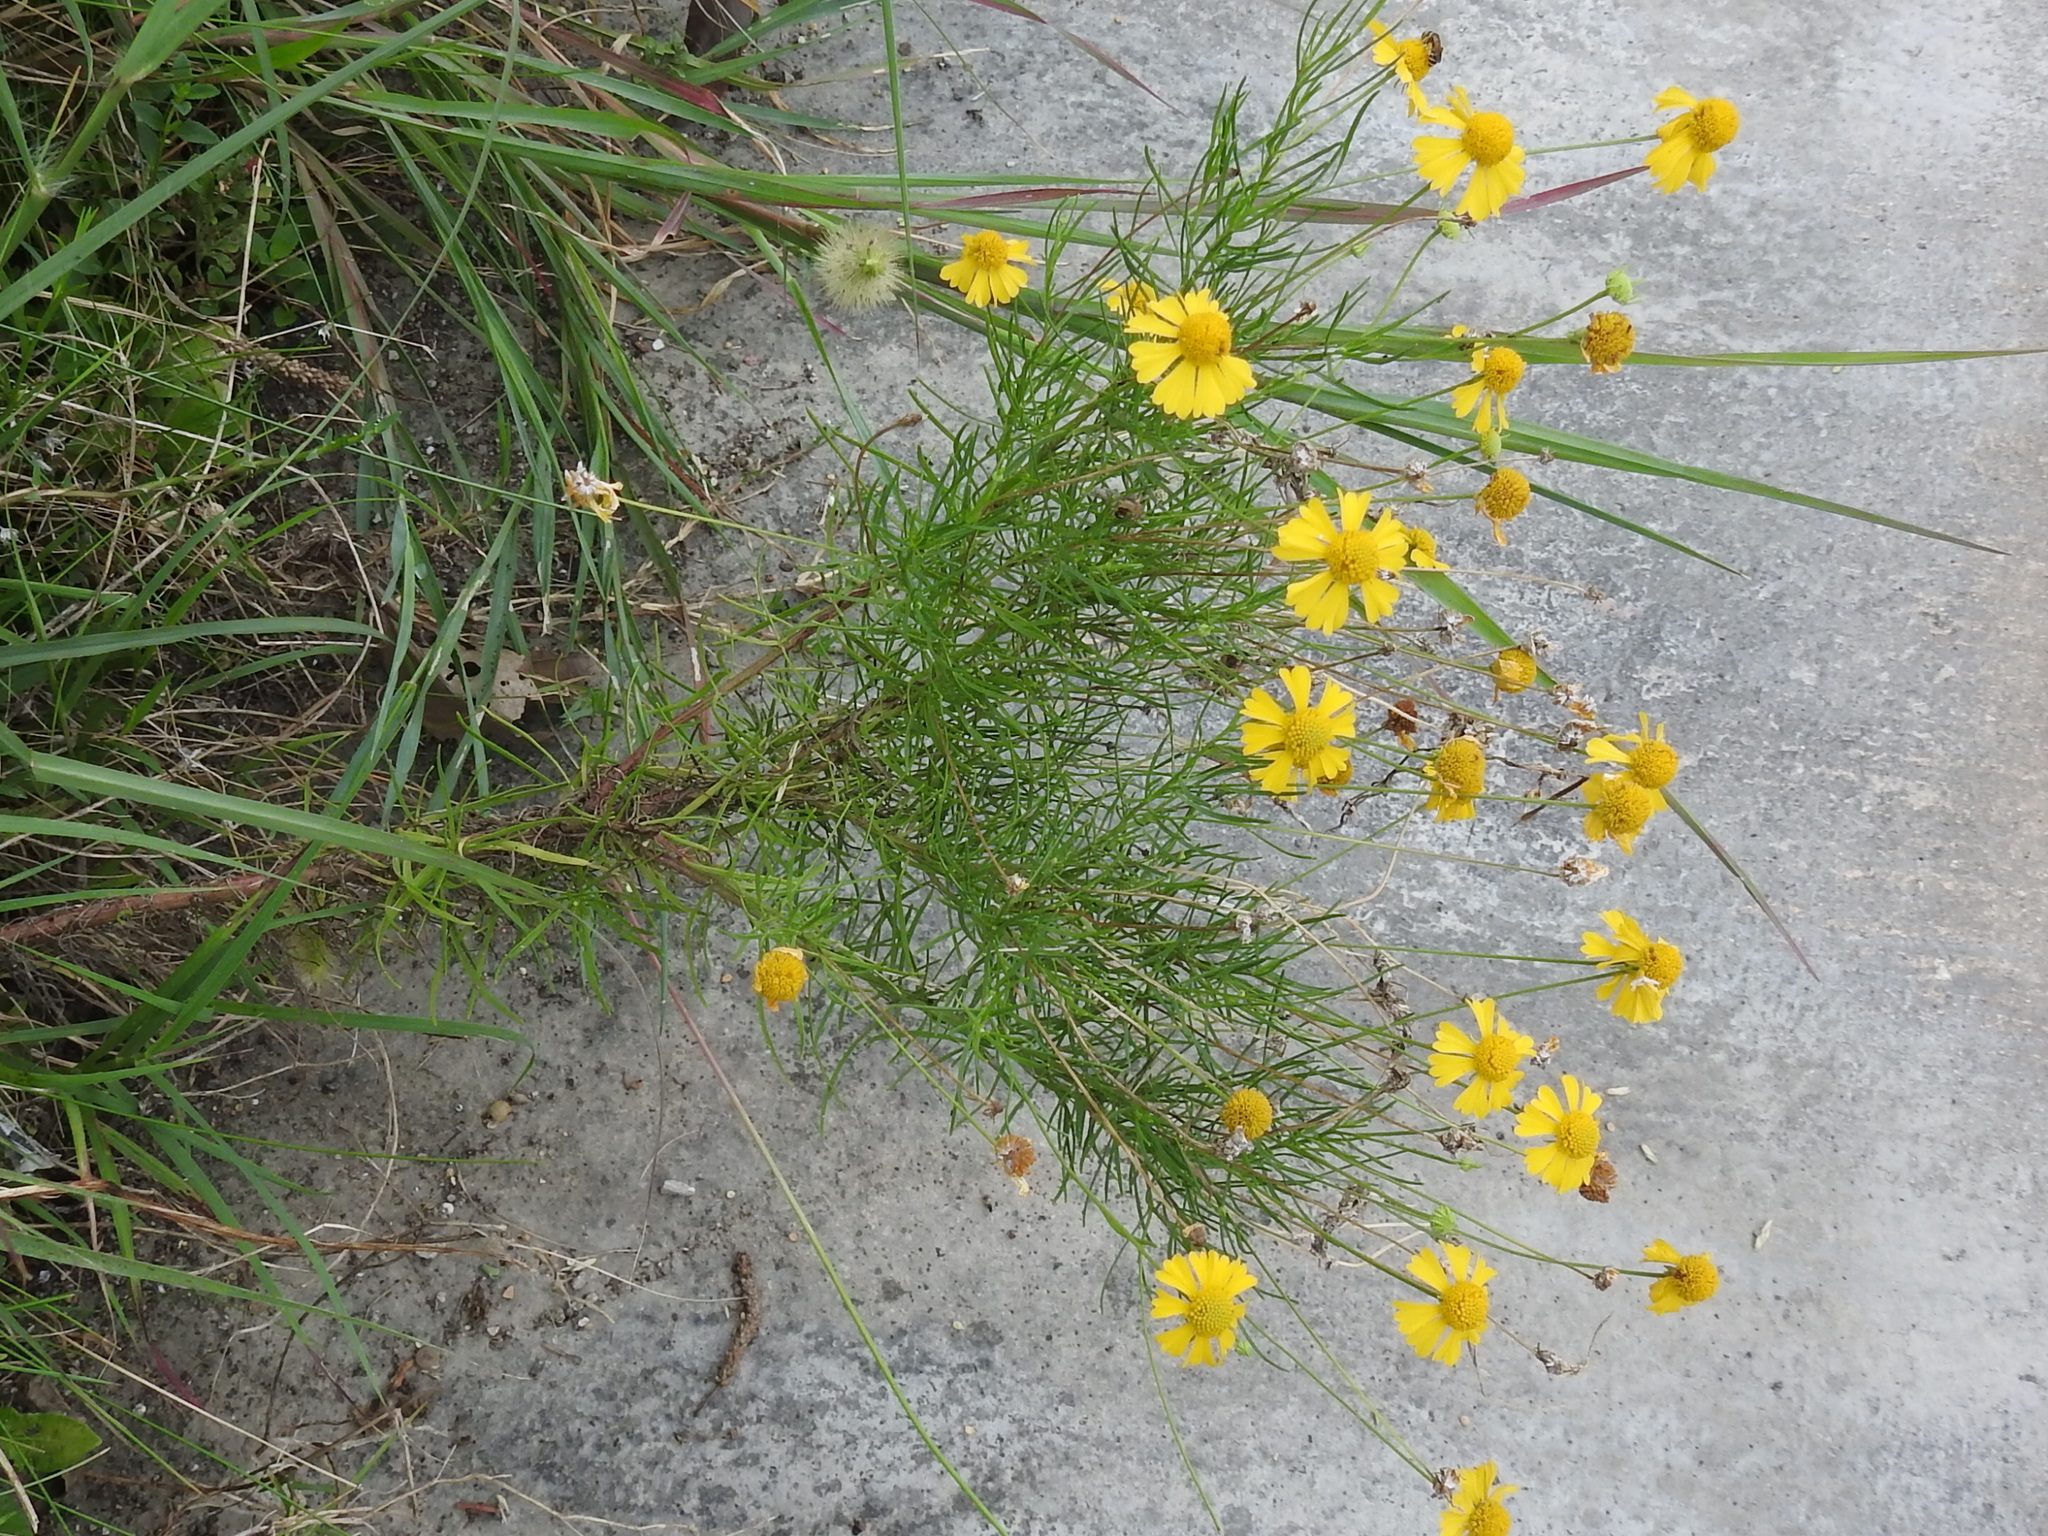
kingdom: Plantae
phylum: Tracheophyta
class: Magnoliopsida
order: Asterales
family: Asteraceae
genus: Helenium
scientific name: Helenium amarum
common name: Bitter sneezeweed
